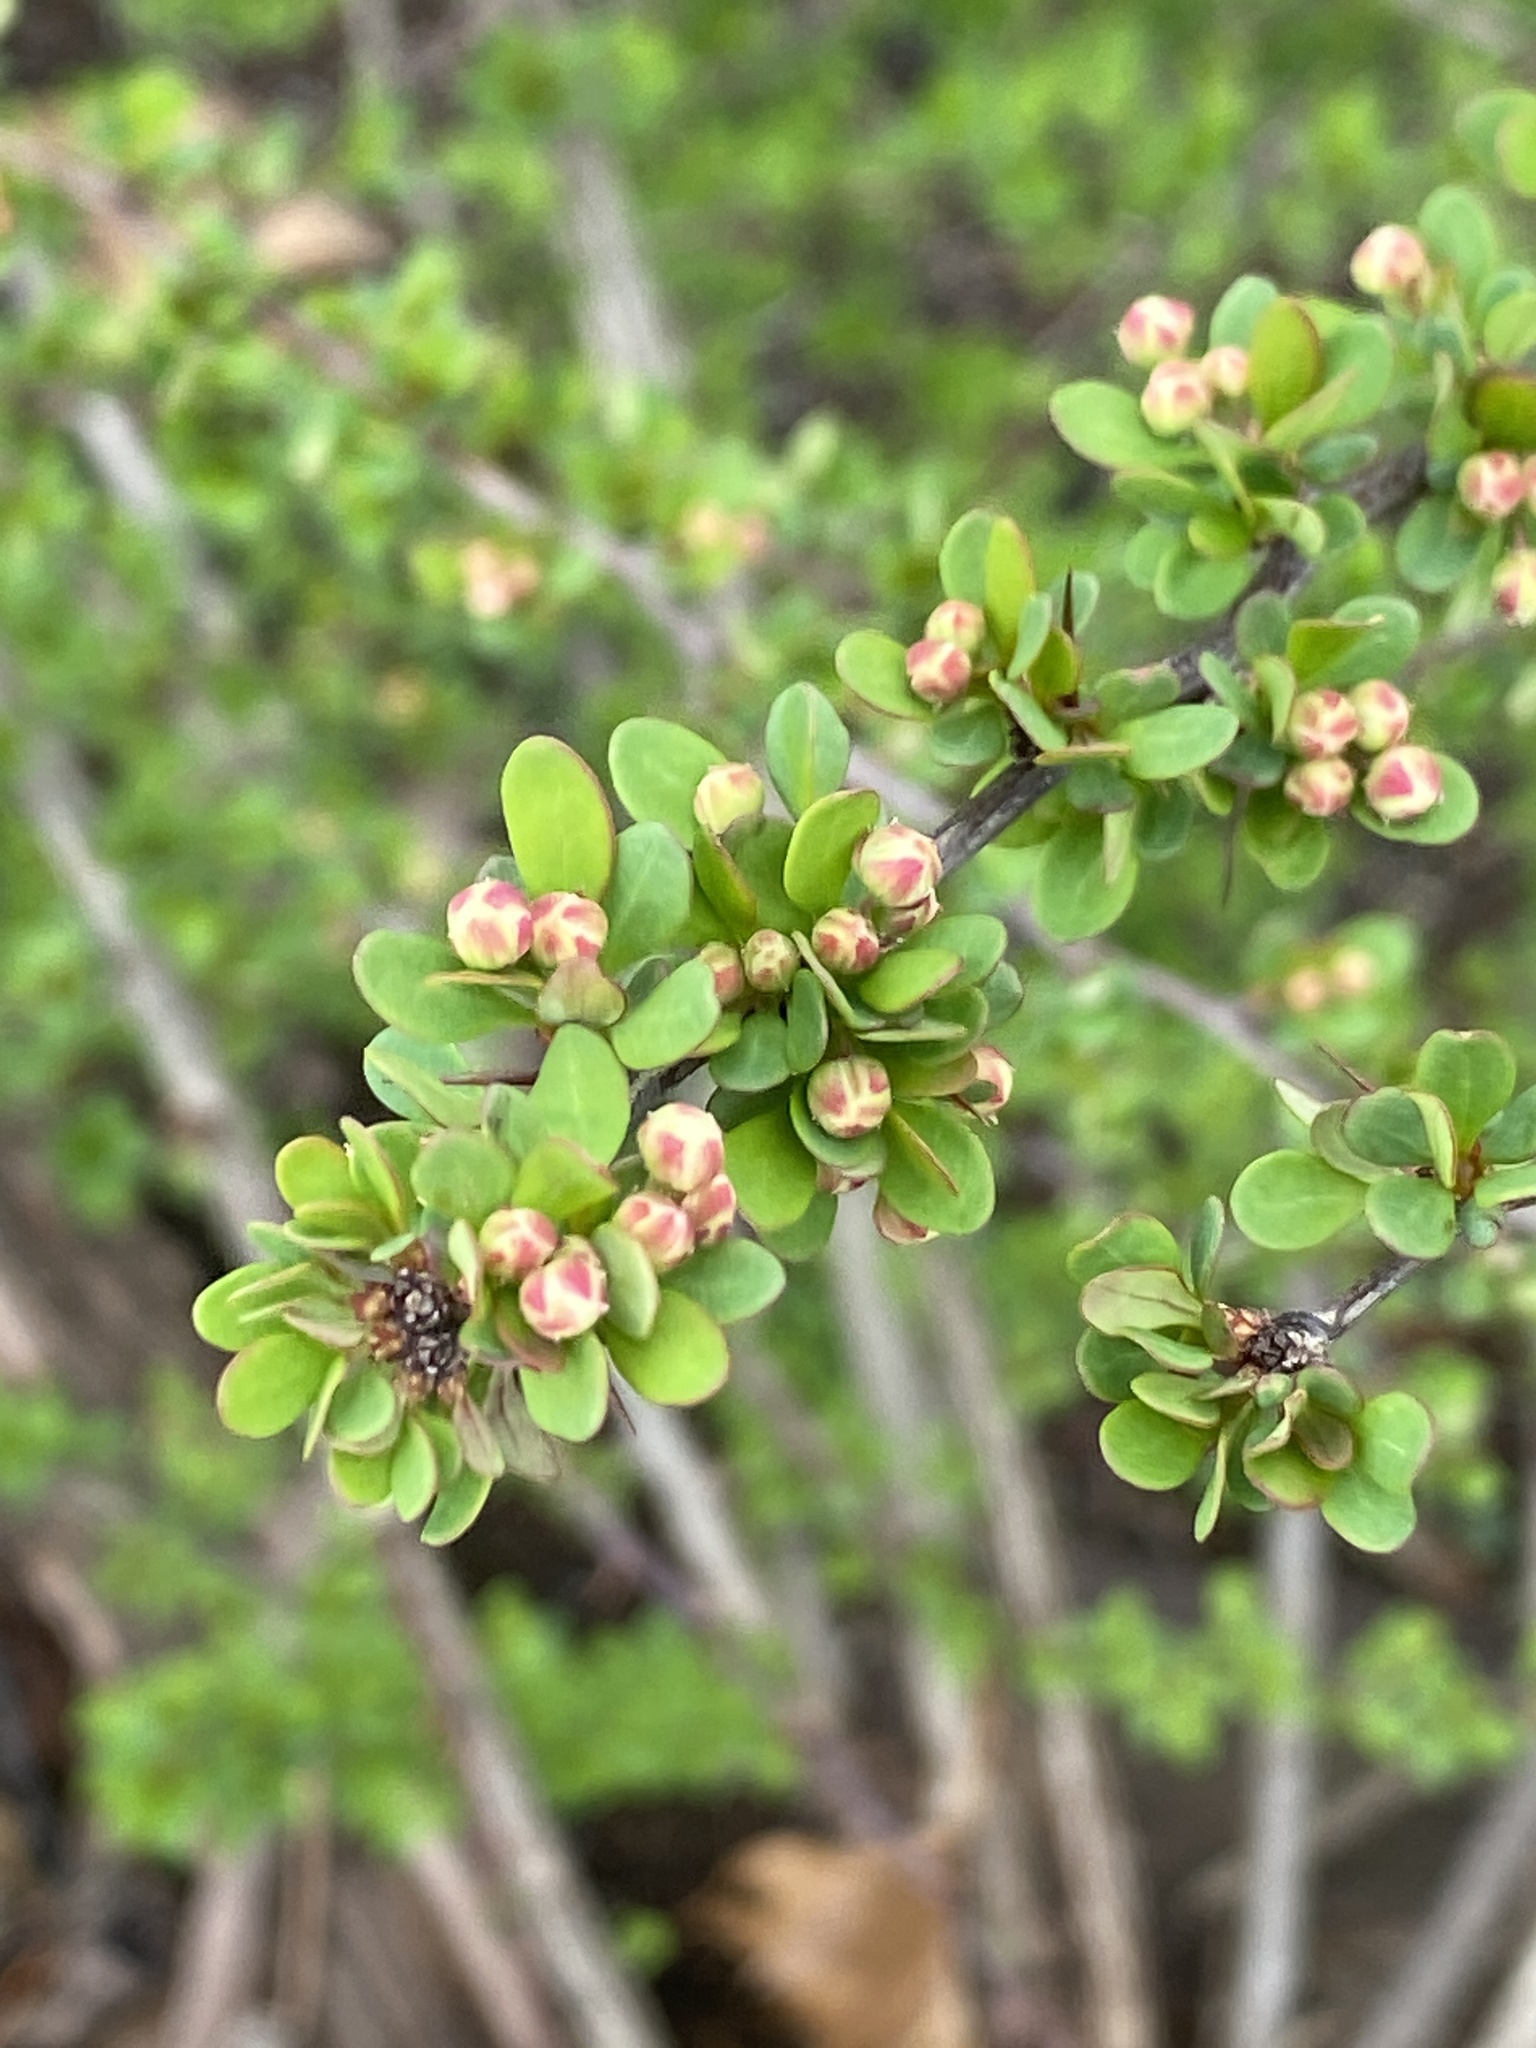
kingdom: Plantae
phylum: Tracheophyta
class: Magnoliopsida
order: Ranunculales
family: Berberidaceae
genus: Berberis
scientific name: Berberis thunbergii
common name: Japanese barberry
